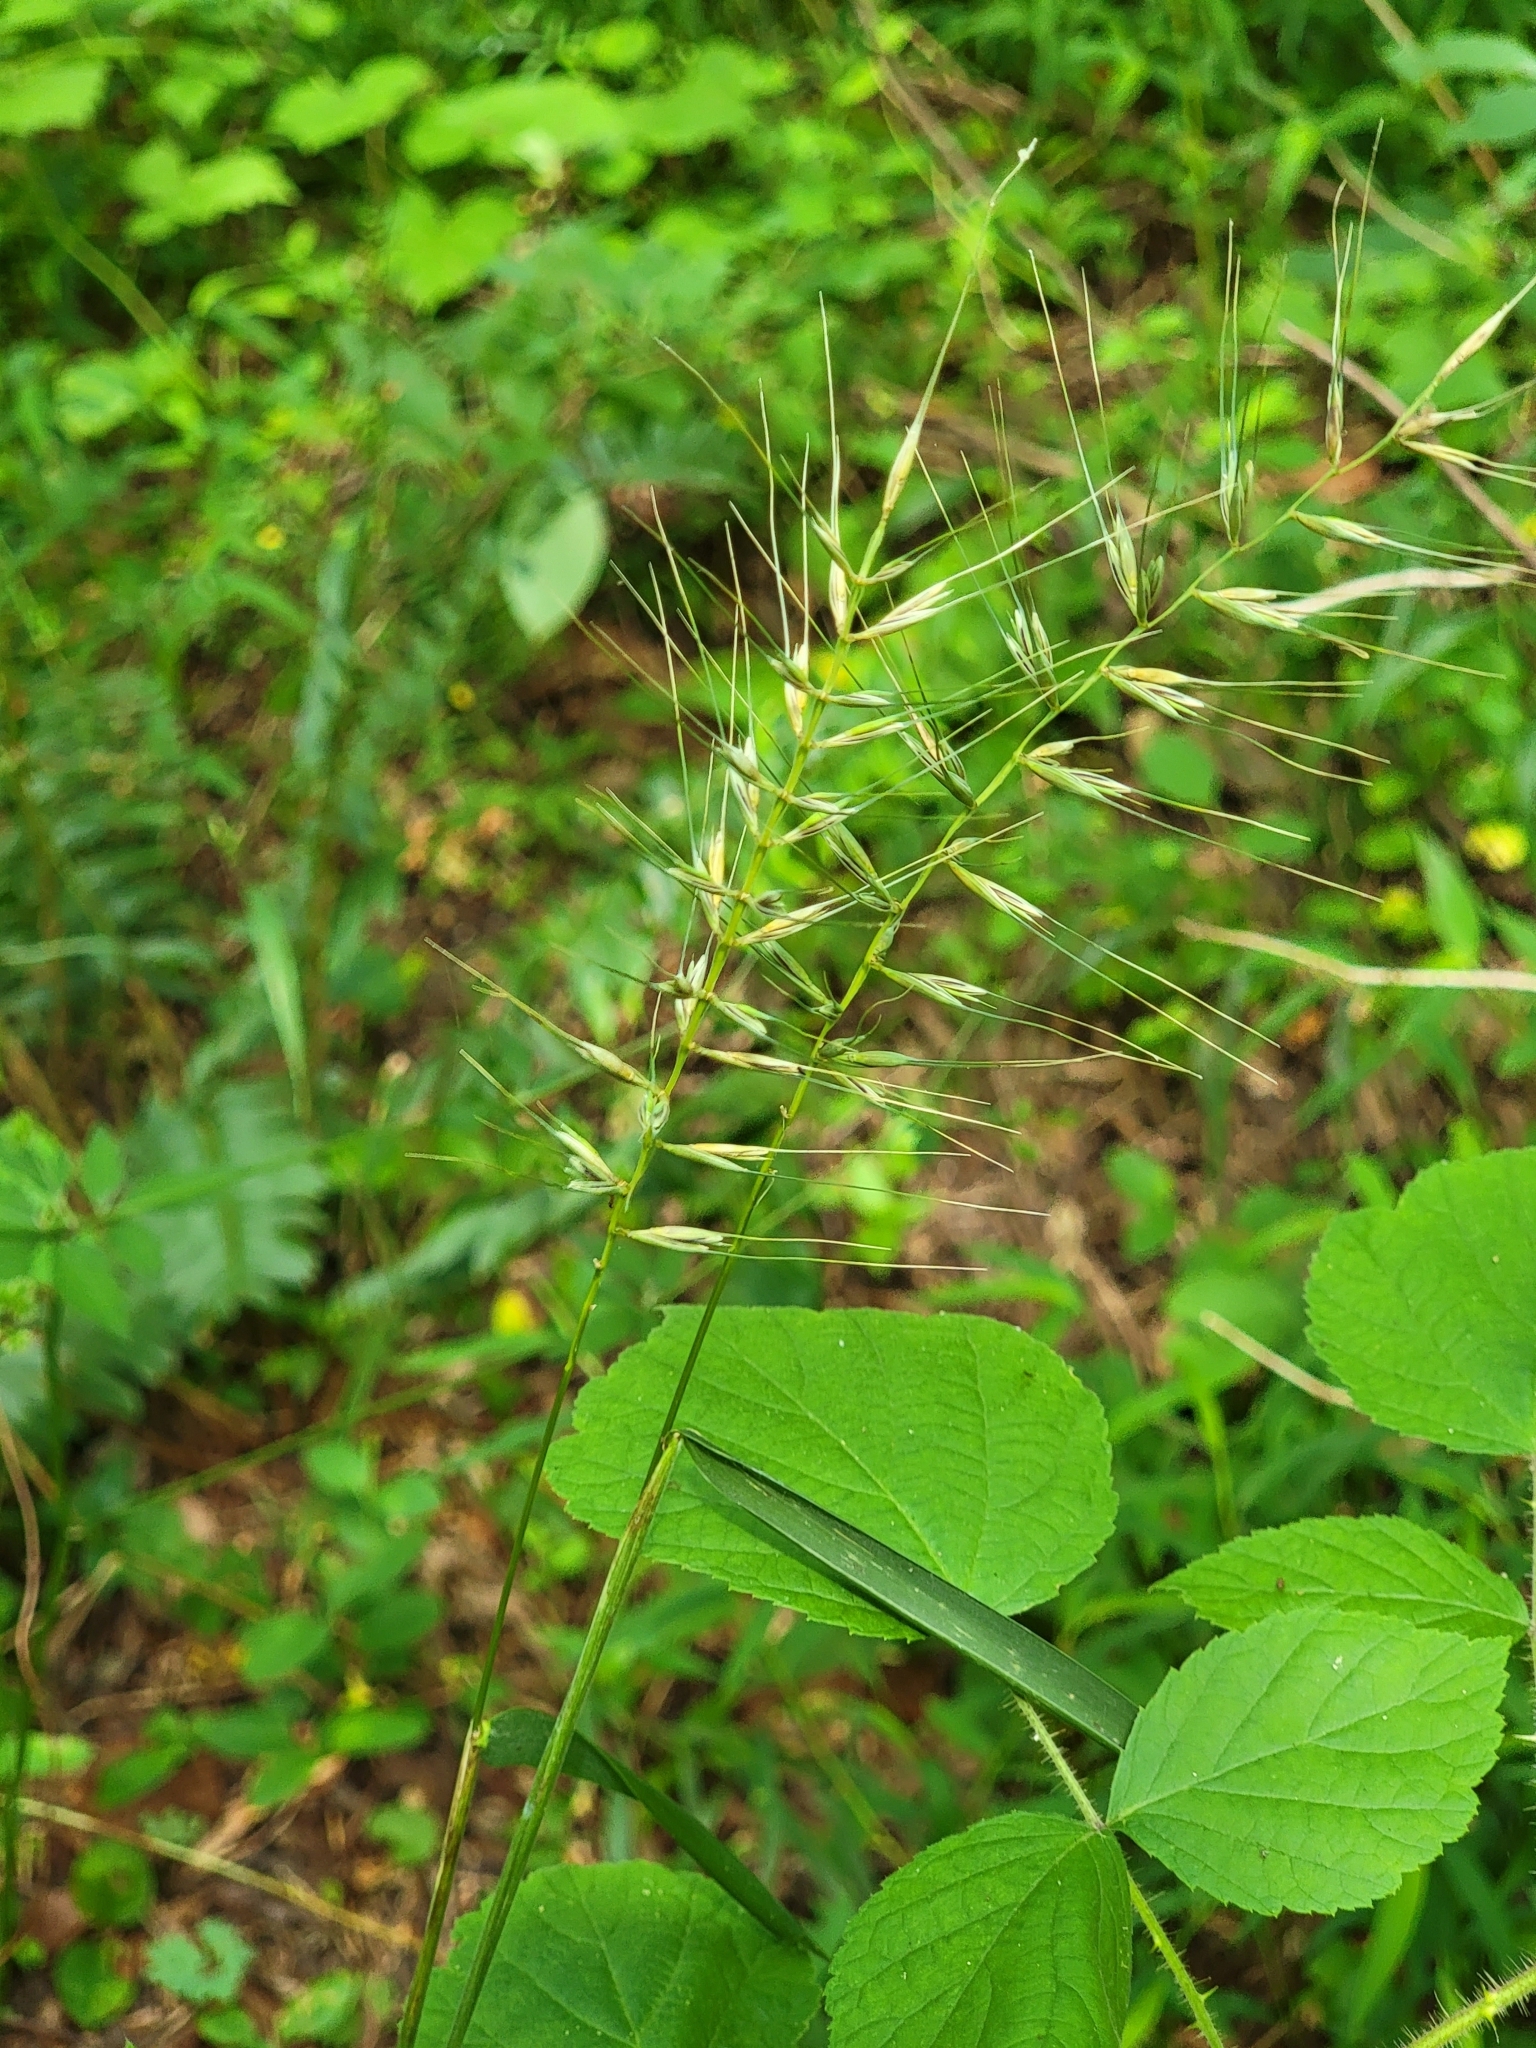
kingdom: Plantae
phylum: Tracheophyta
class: Liliopsida
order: Poales
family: Poaceae
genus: Elymus
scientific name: Elymus hystrix
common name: Bottlebrush grass
